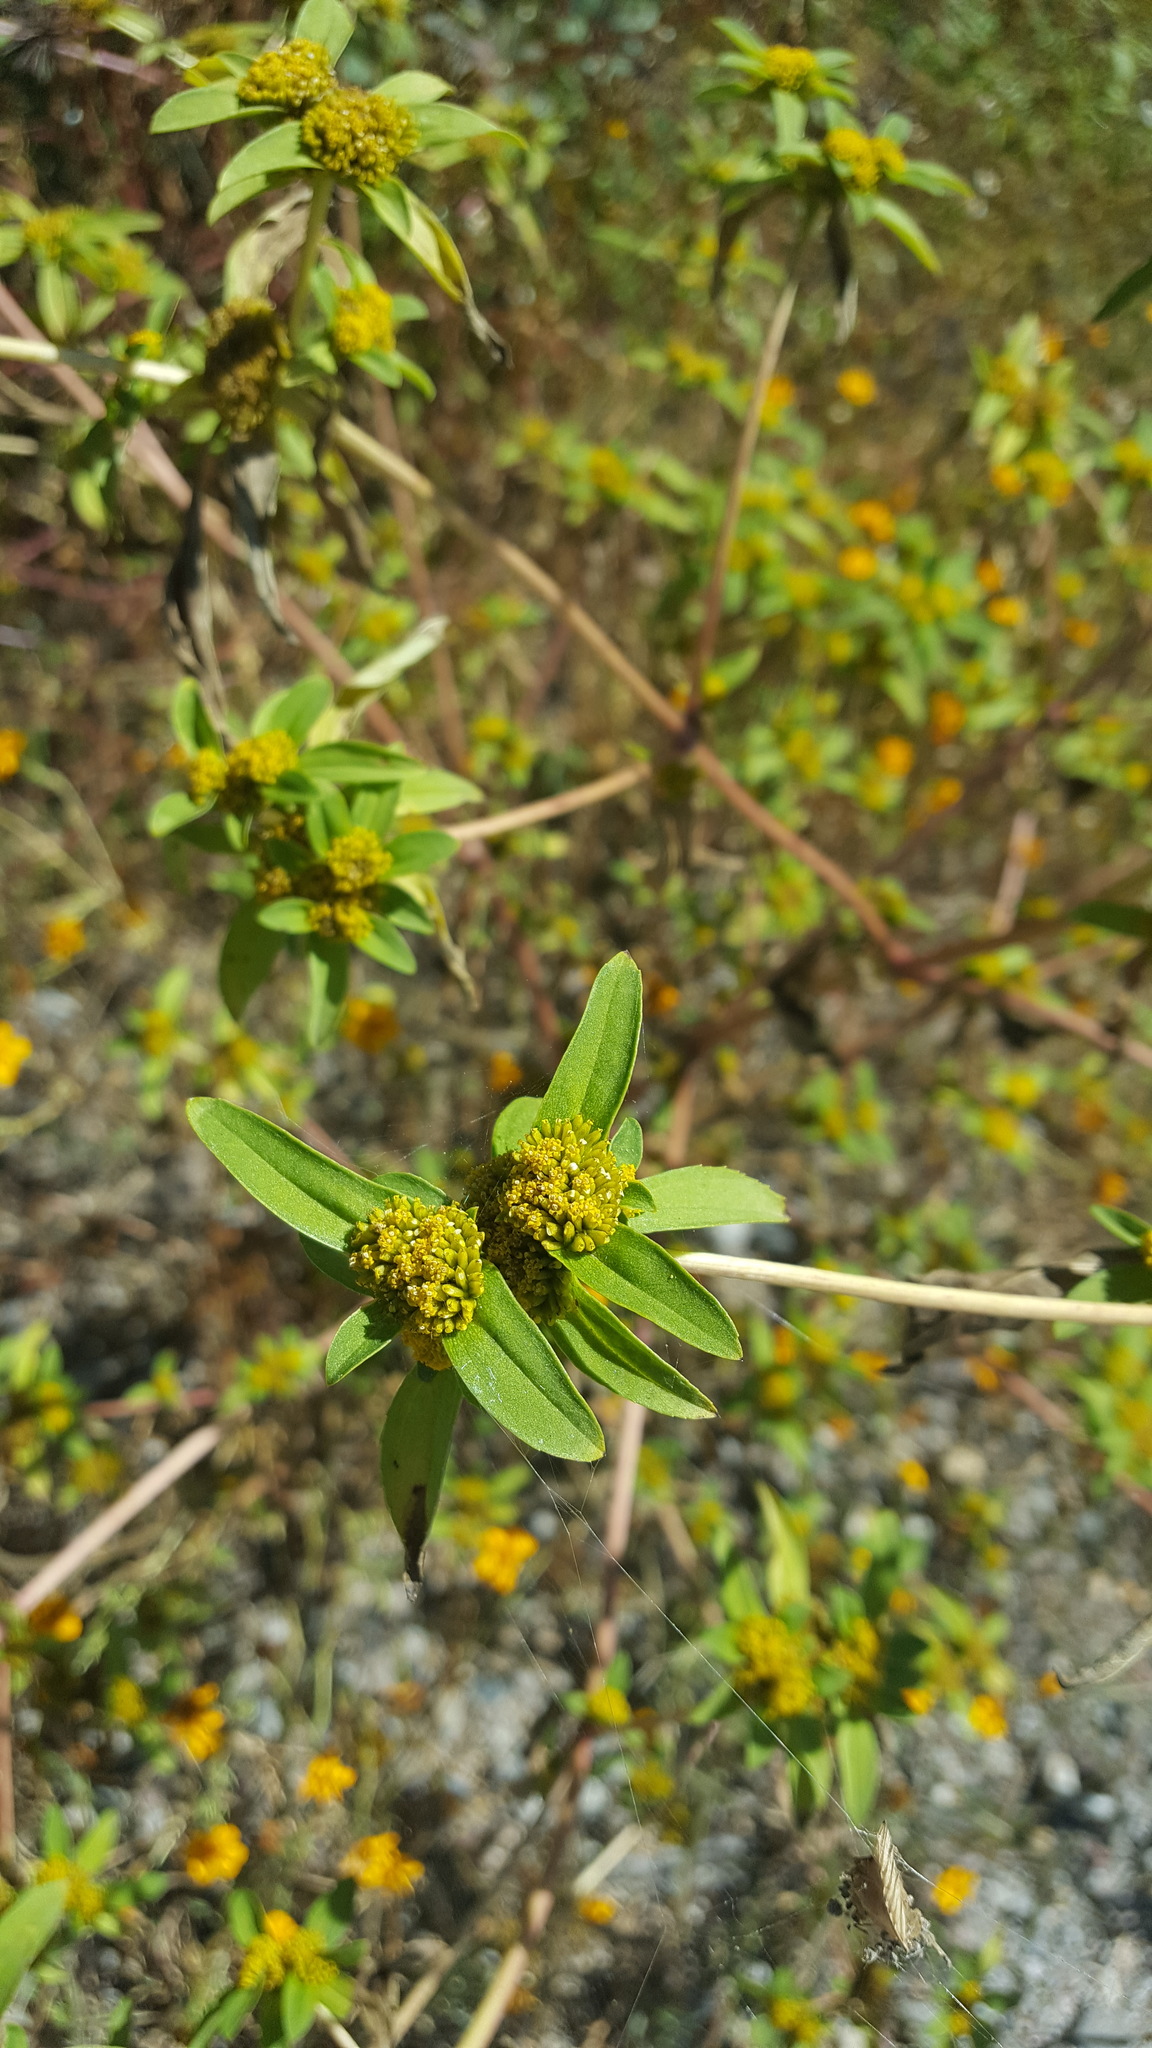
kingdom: Plantae
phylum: Tracheophyta
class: Magnoliopsida
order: Asterales
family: Asteraceae
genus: Flaveria
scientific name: Flaveria trinervia
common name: Clustered yellowtops
